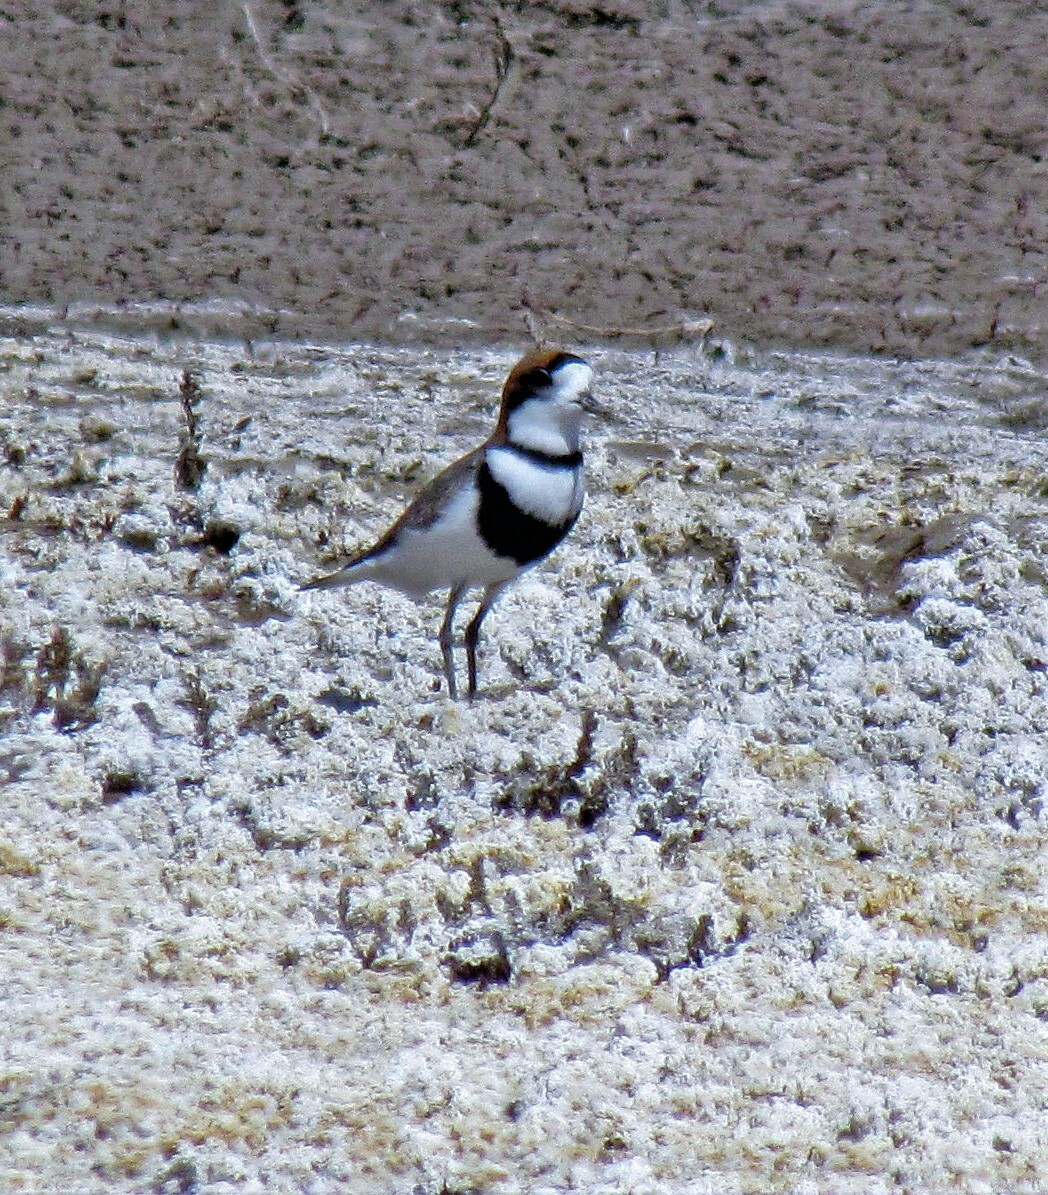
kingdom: Animalia
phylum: Chordata
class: Aves
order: Charadriiformes
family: Charadriidae
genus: Anarhynchus
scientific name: Anarhynchus
